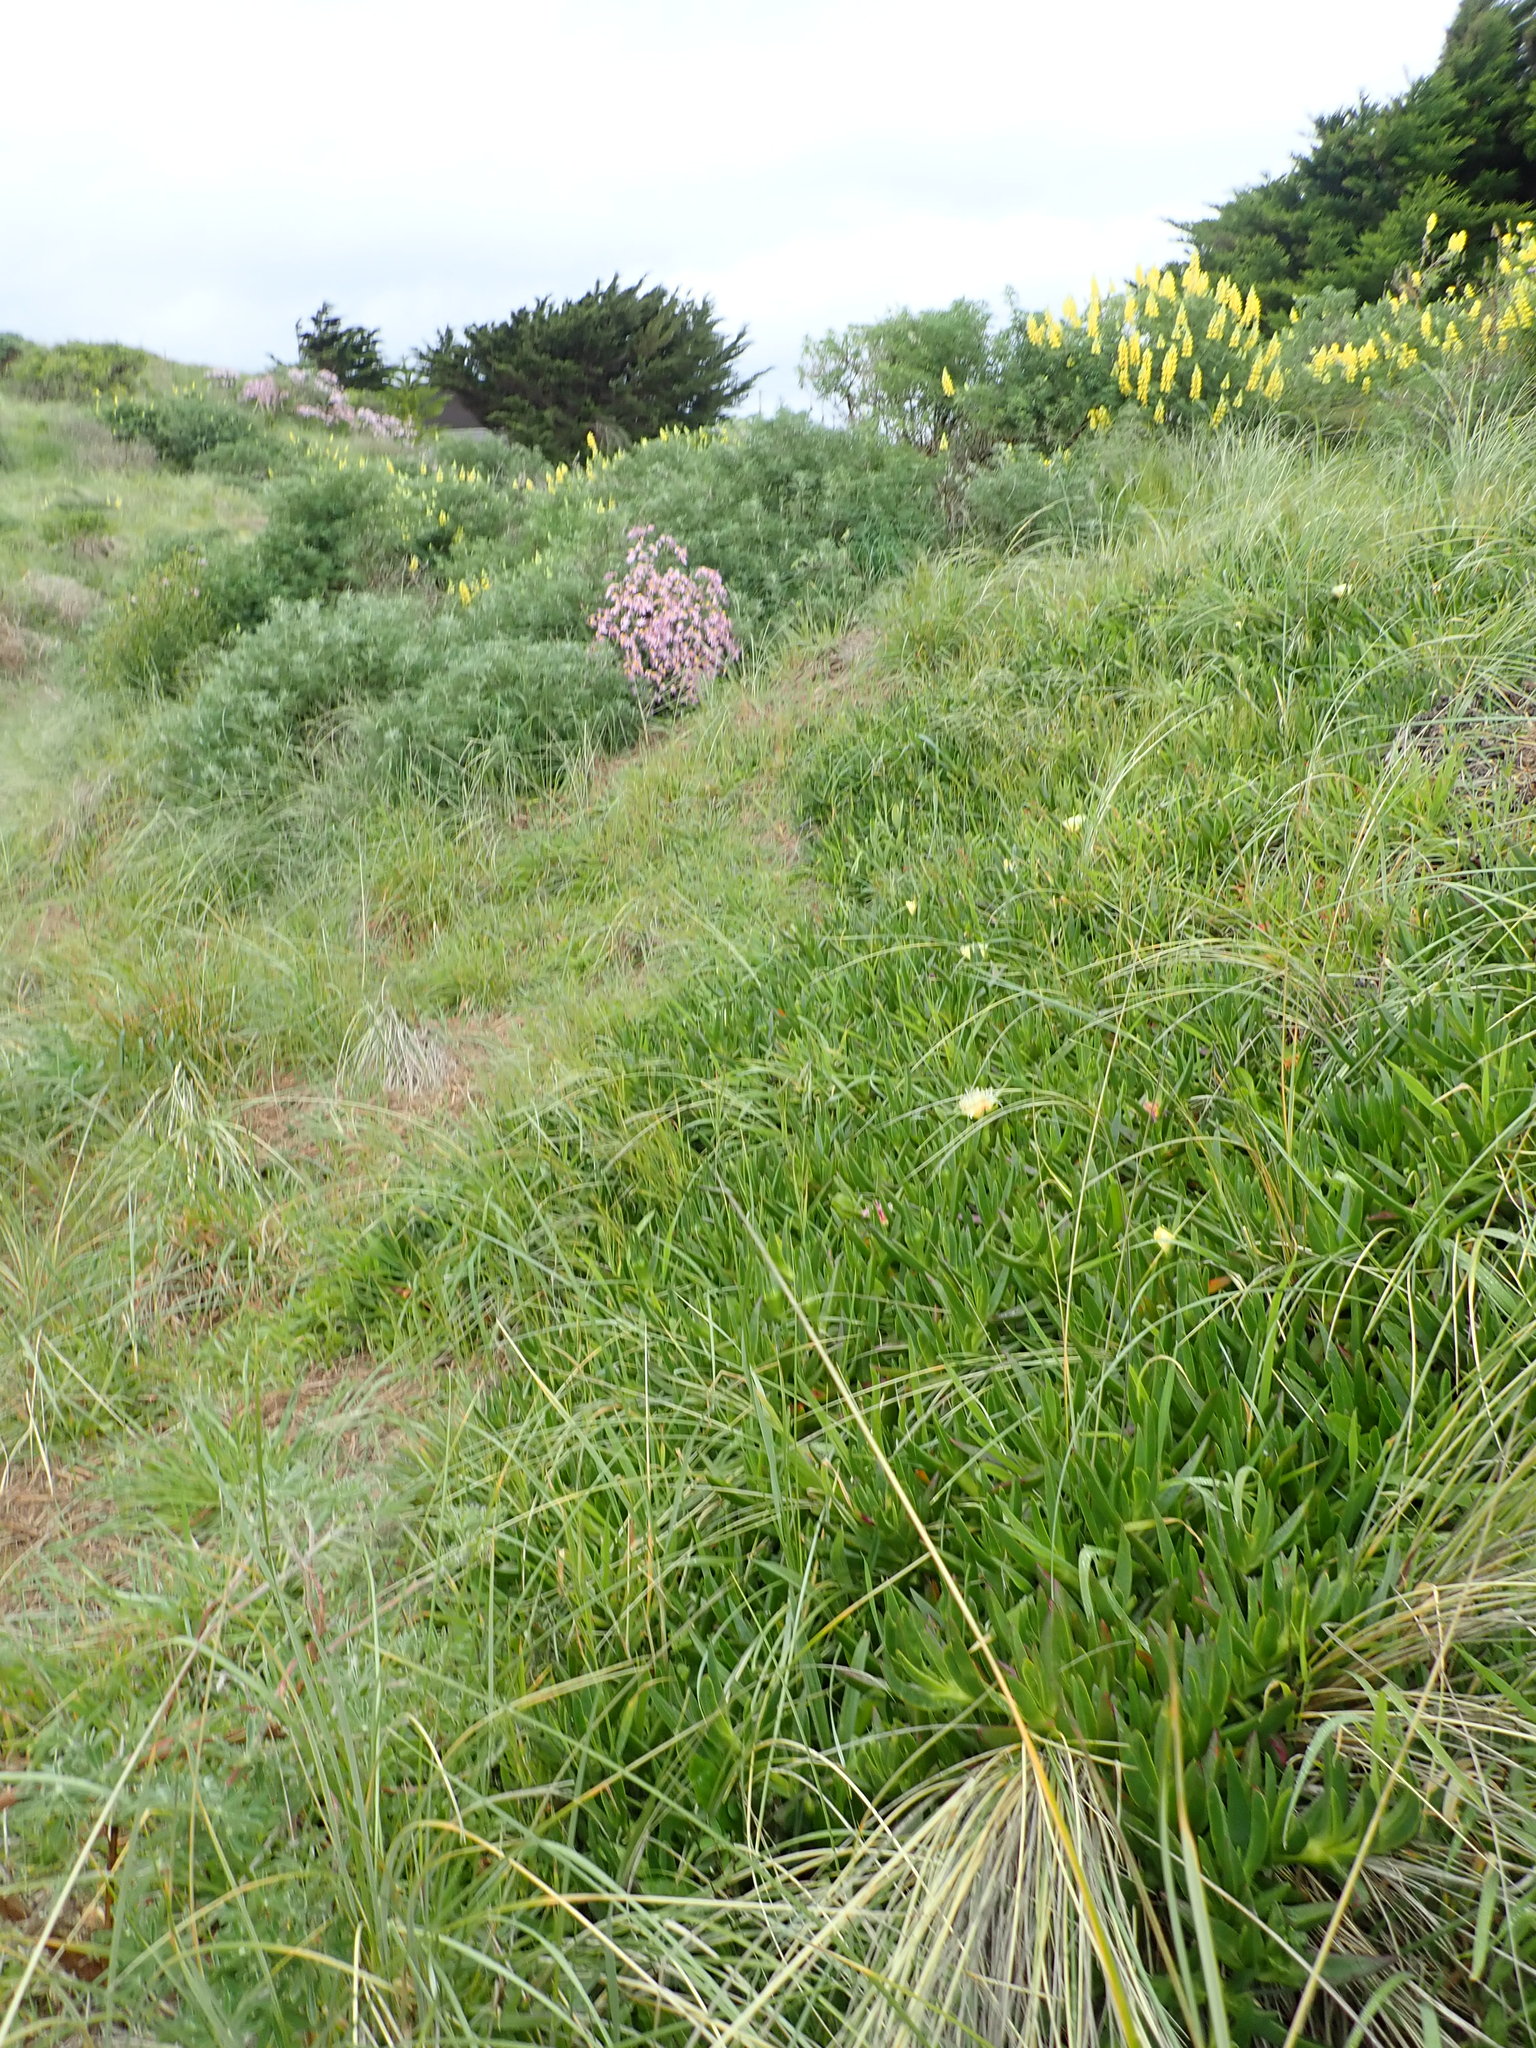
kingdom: Plantae
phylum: Tracheophyta
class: Magnoliopsida
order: Caryophyllales
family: Aizoaceae
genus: Carpobrotus
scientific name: Carpobrotus edulis
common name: Hottentot-fig
